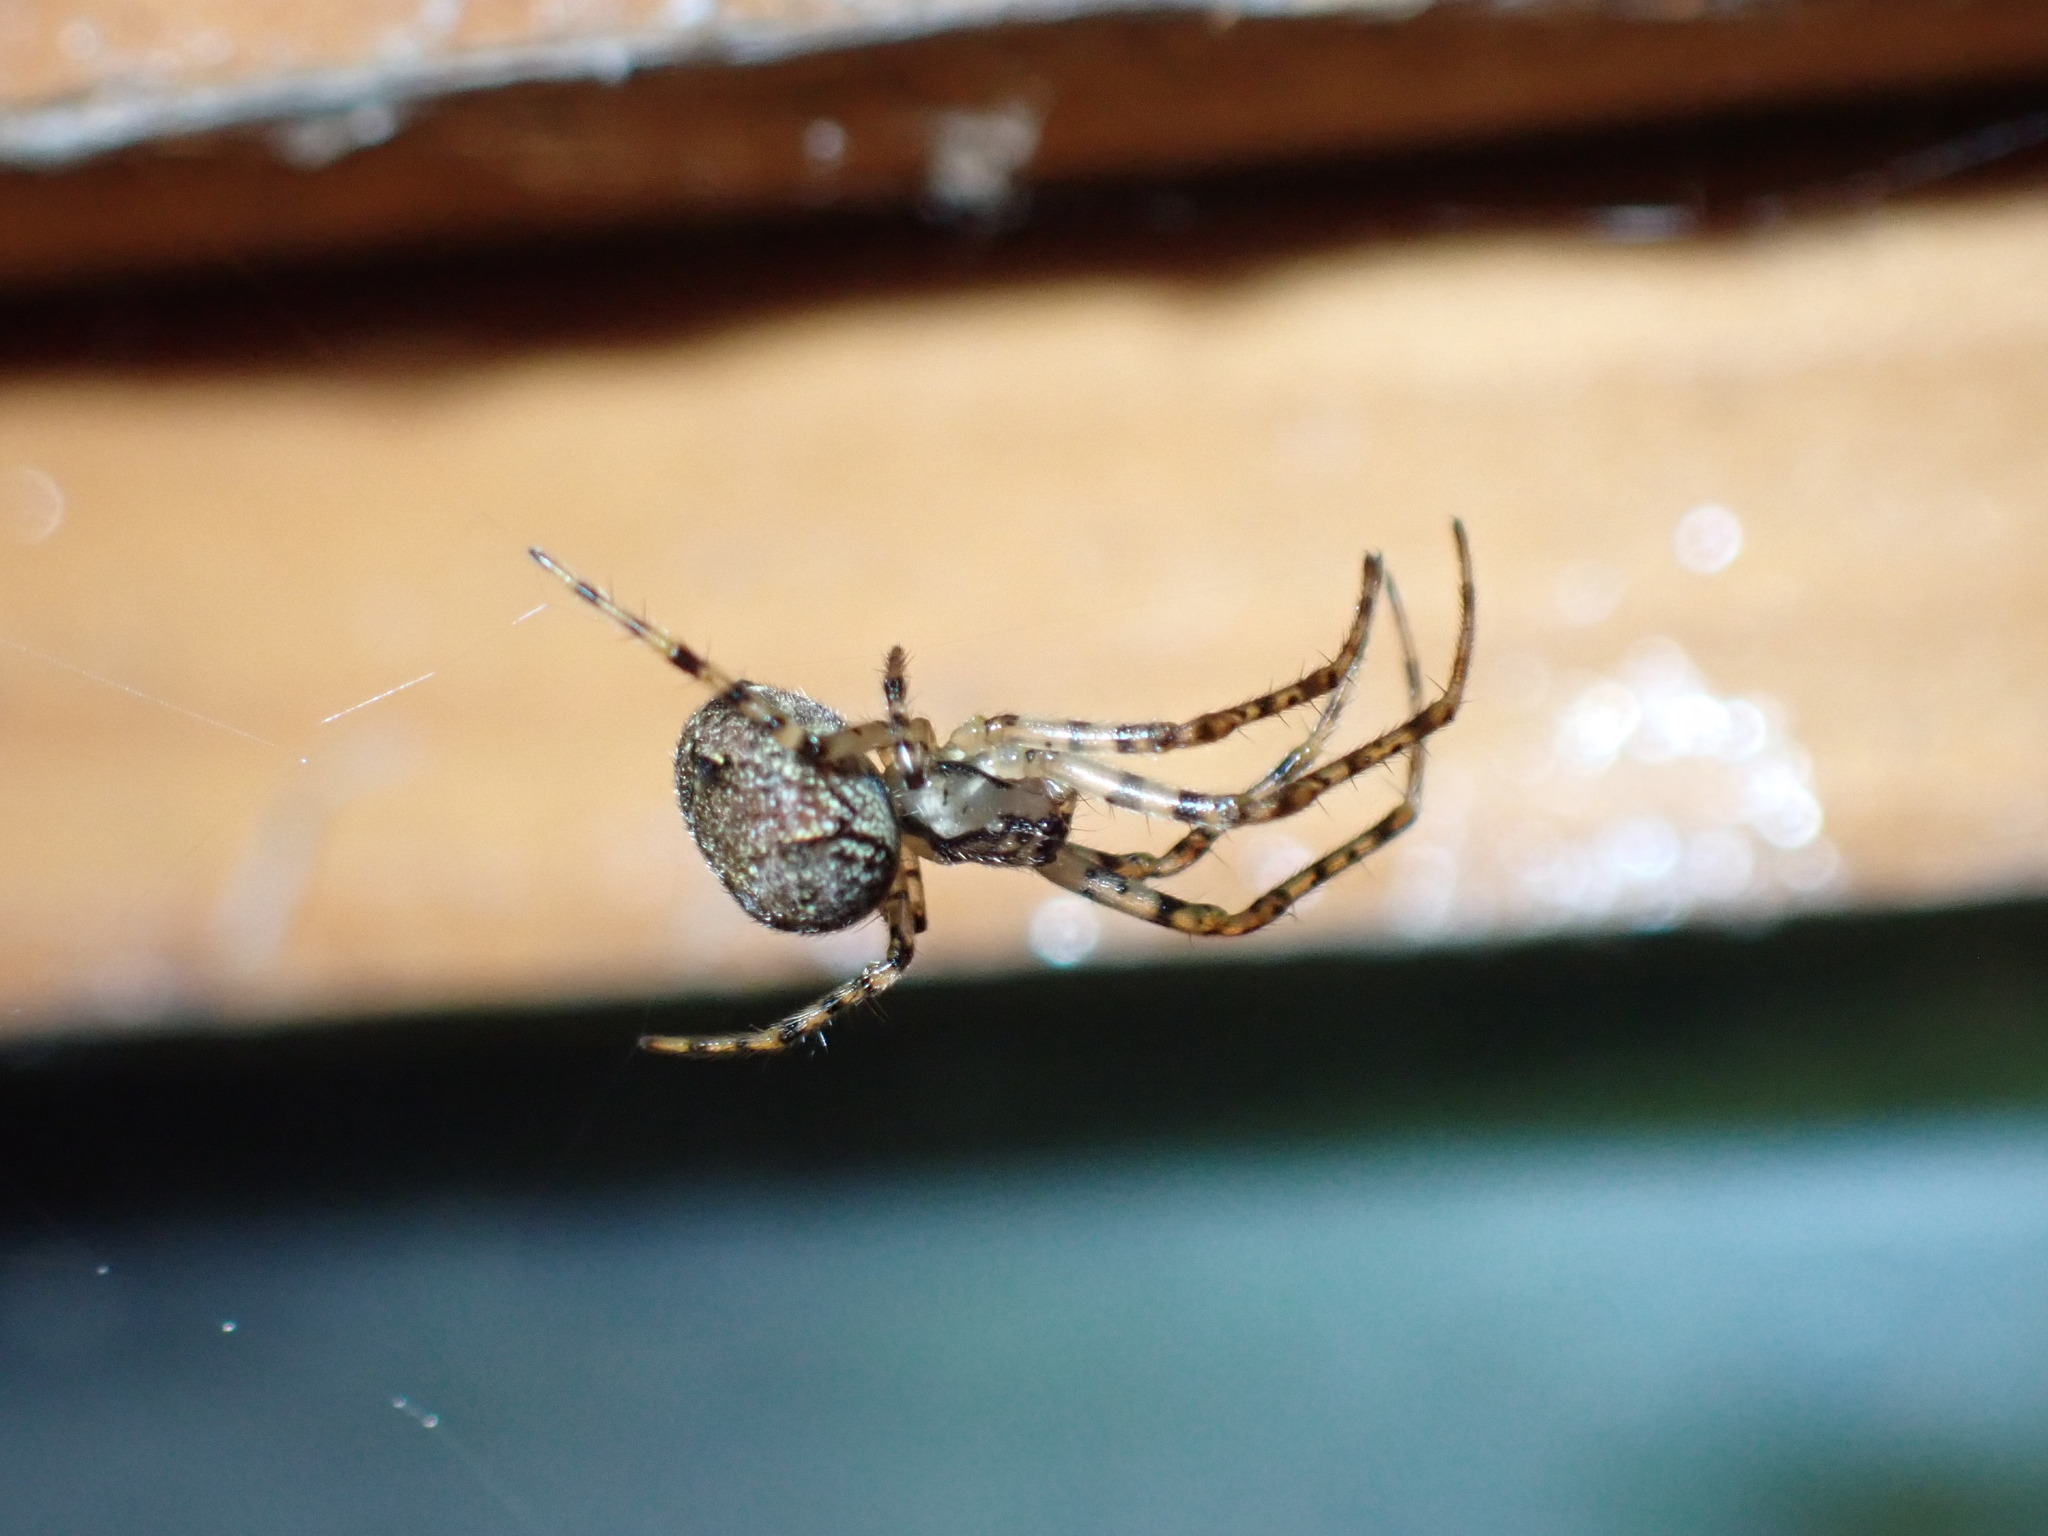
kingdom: Animalia
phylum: Arthropoda
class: Arachnida
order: Araneae
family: Tetragnathidae
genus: Metellina
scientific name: Metellina merianae
